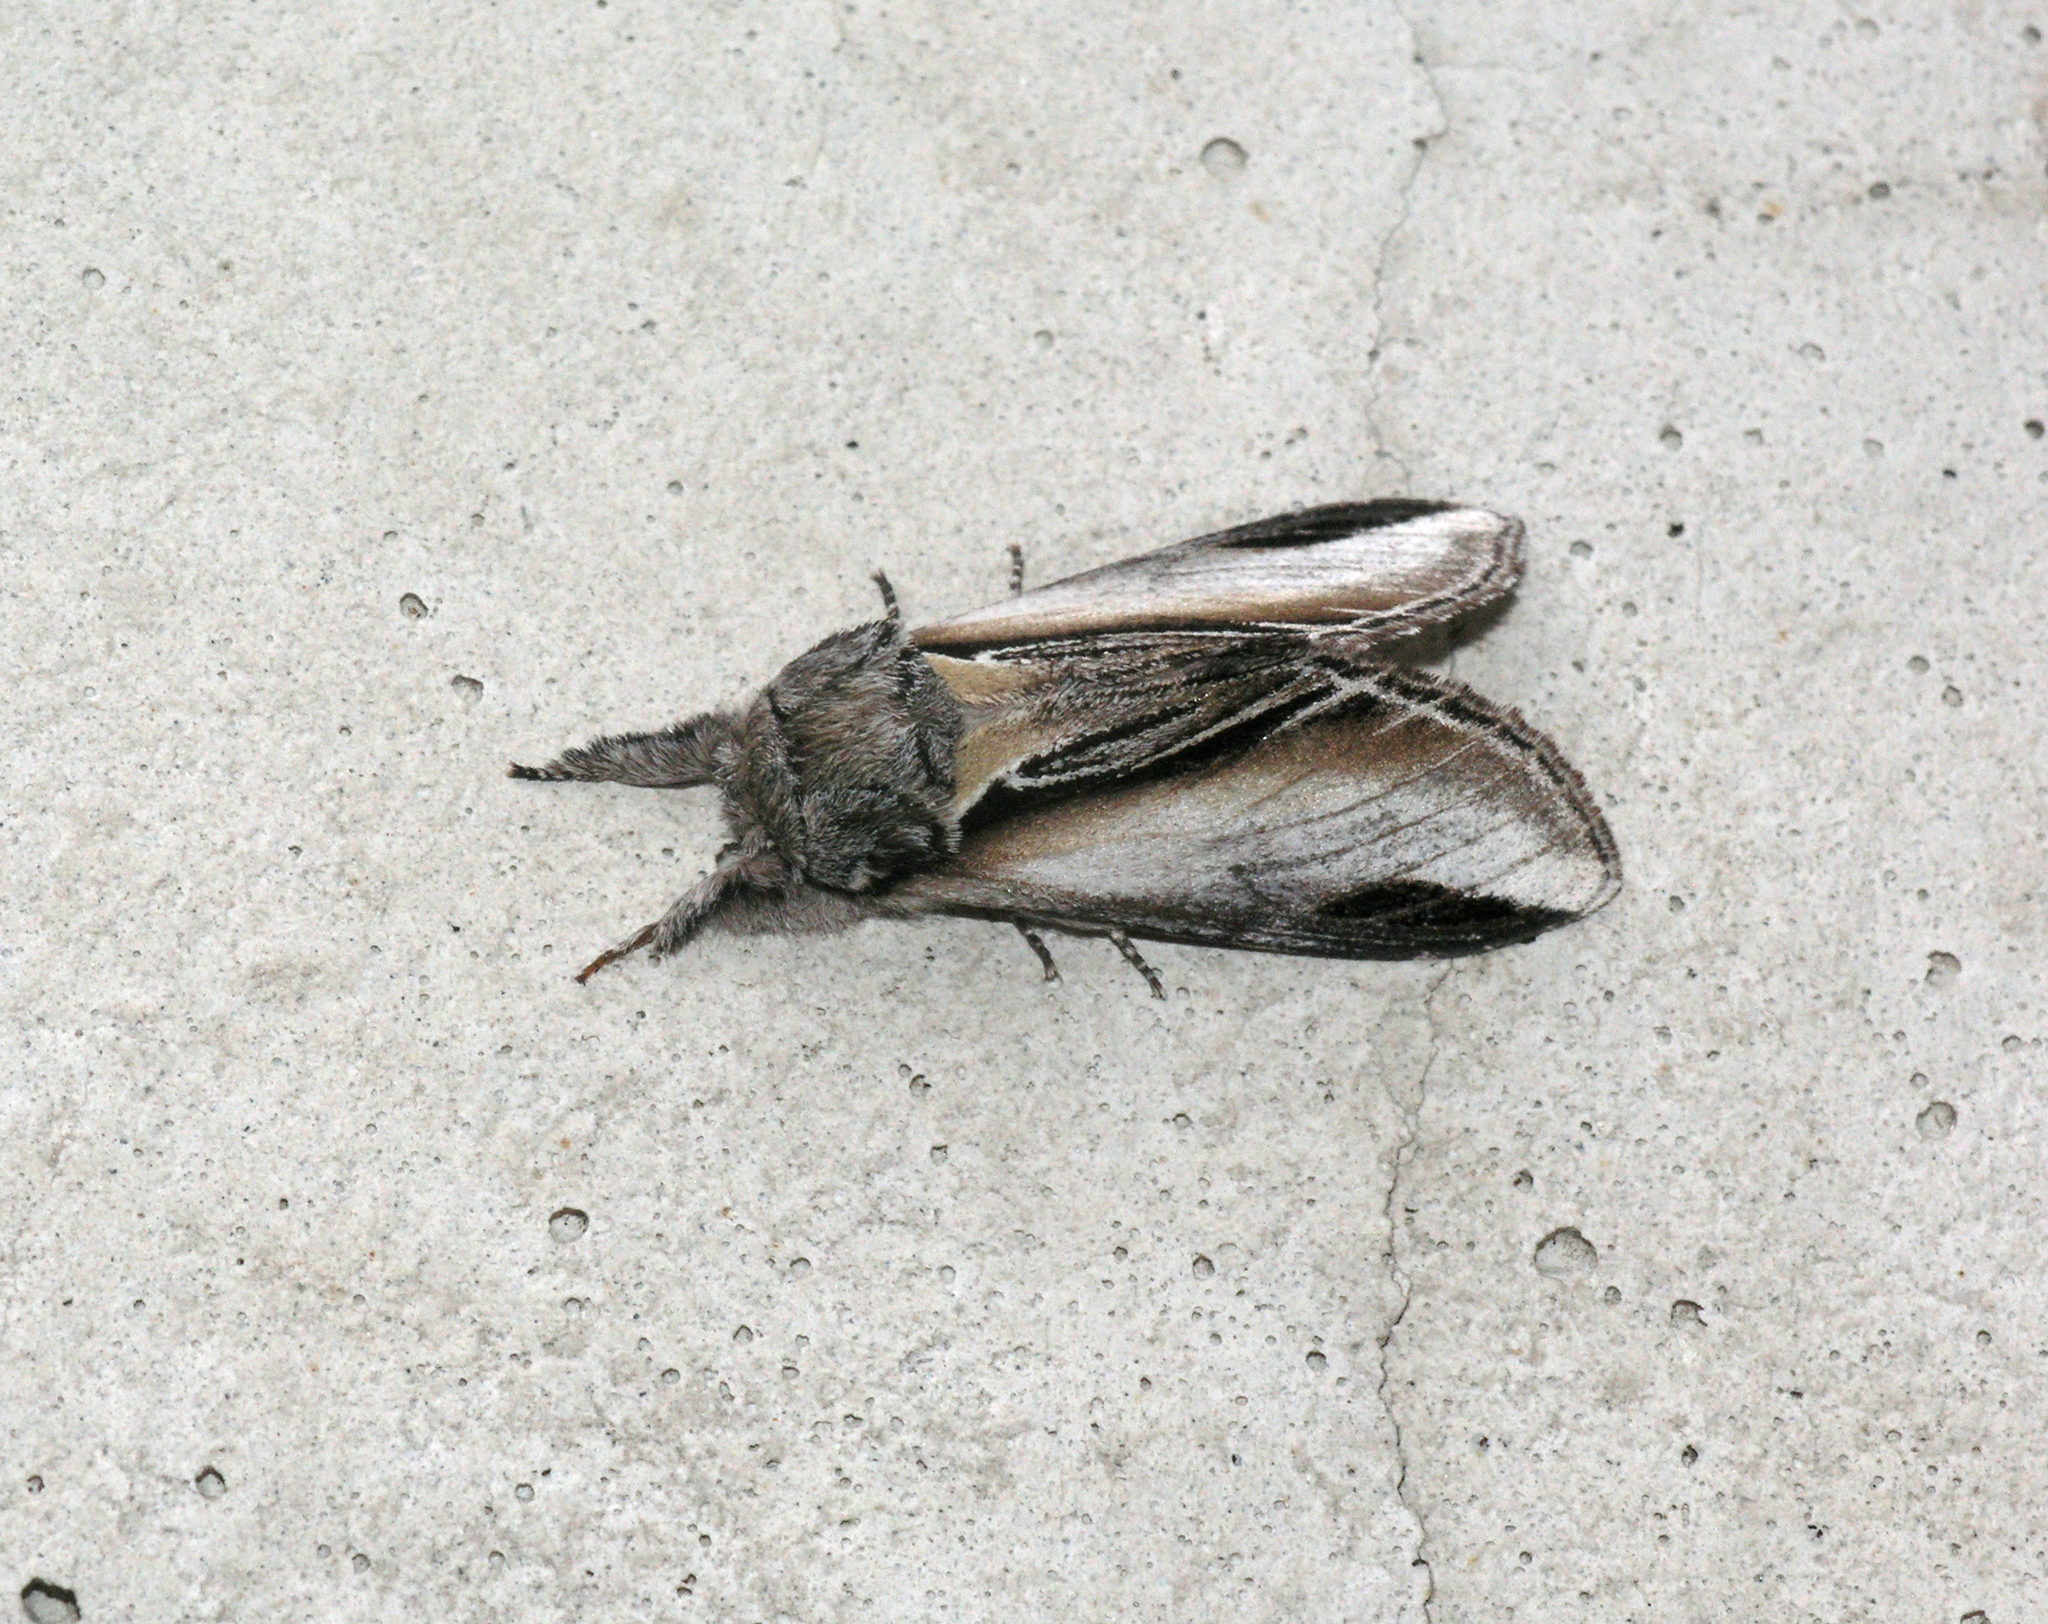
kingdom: Animalia
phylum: Arthropoda
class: Insecta
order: Lepidoptera
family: Notodontidae
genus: Pheosia
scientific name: Pheosia tremula
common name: Swallow prominent
